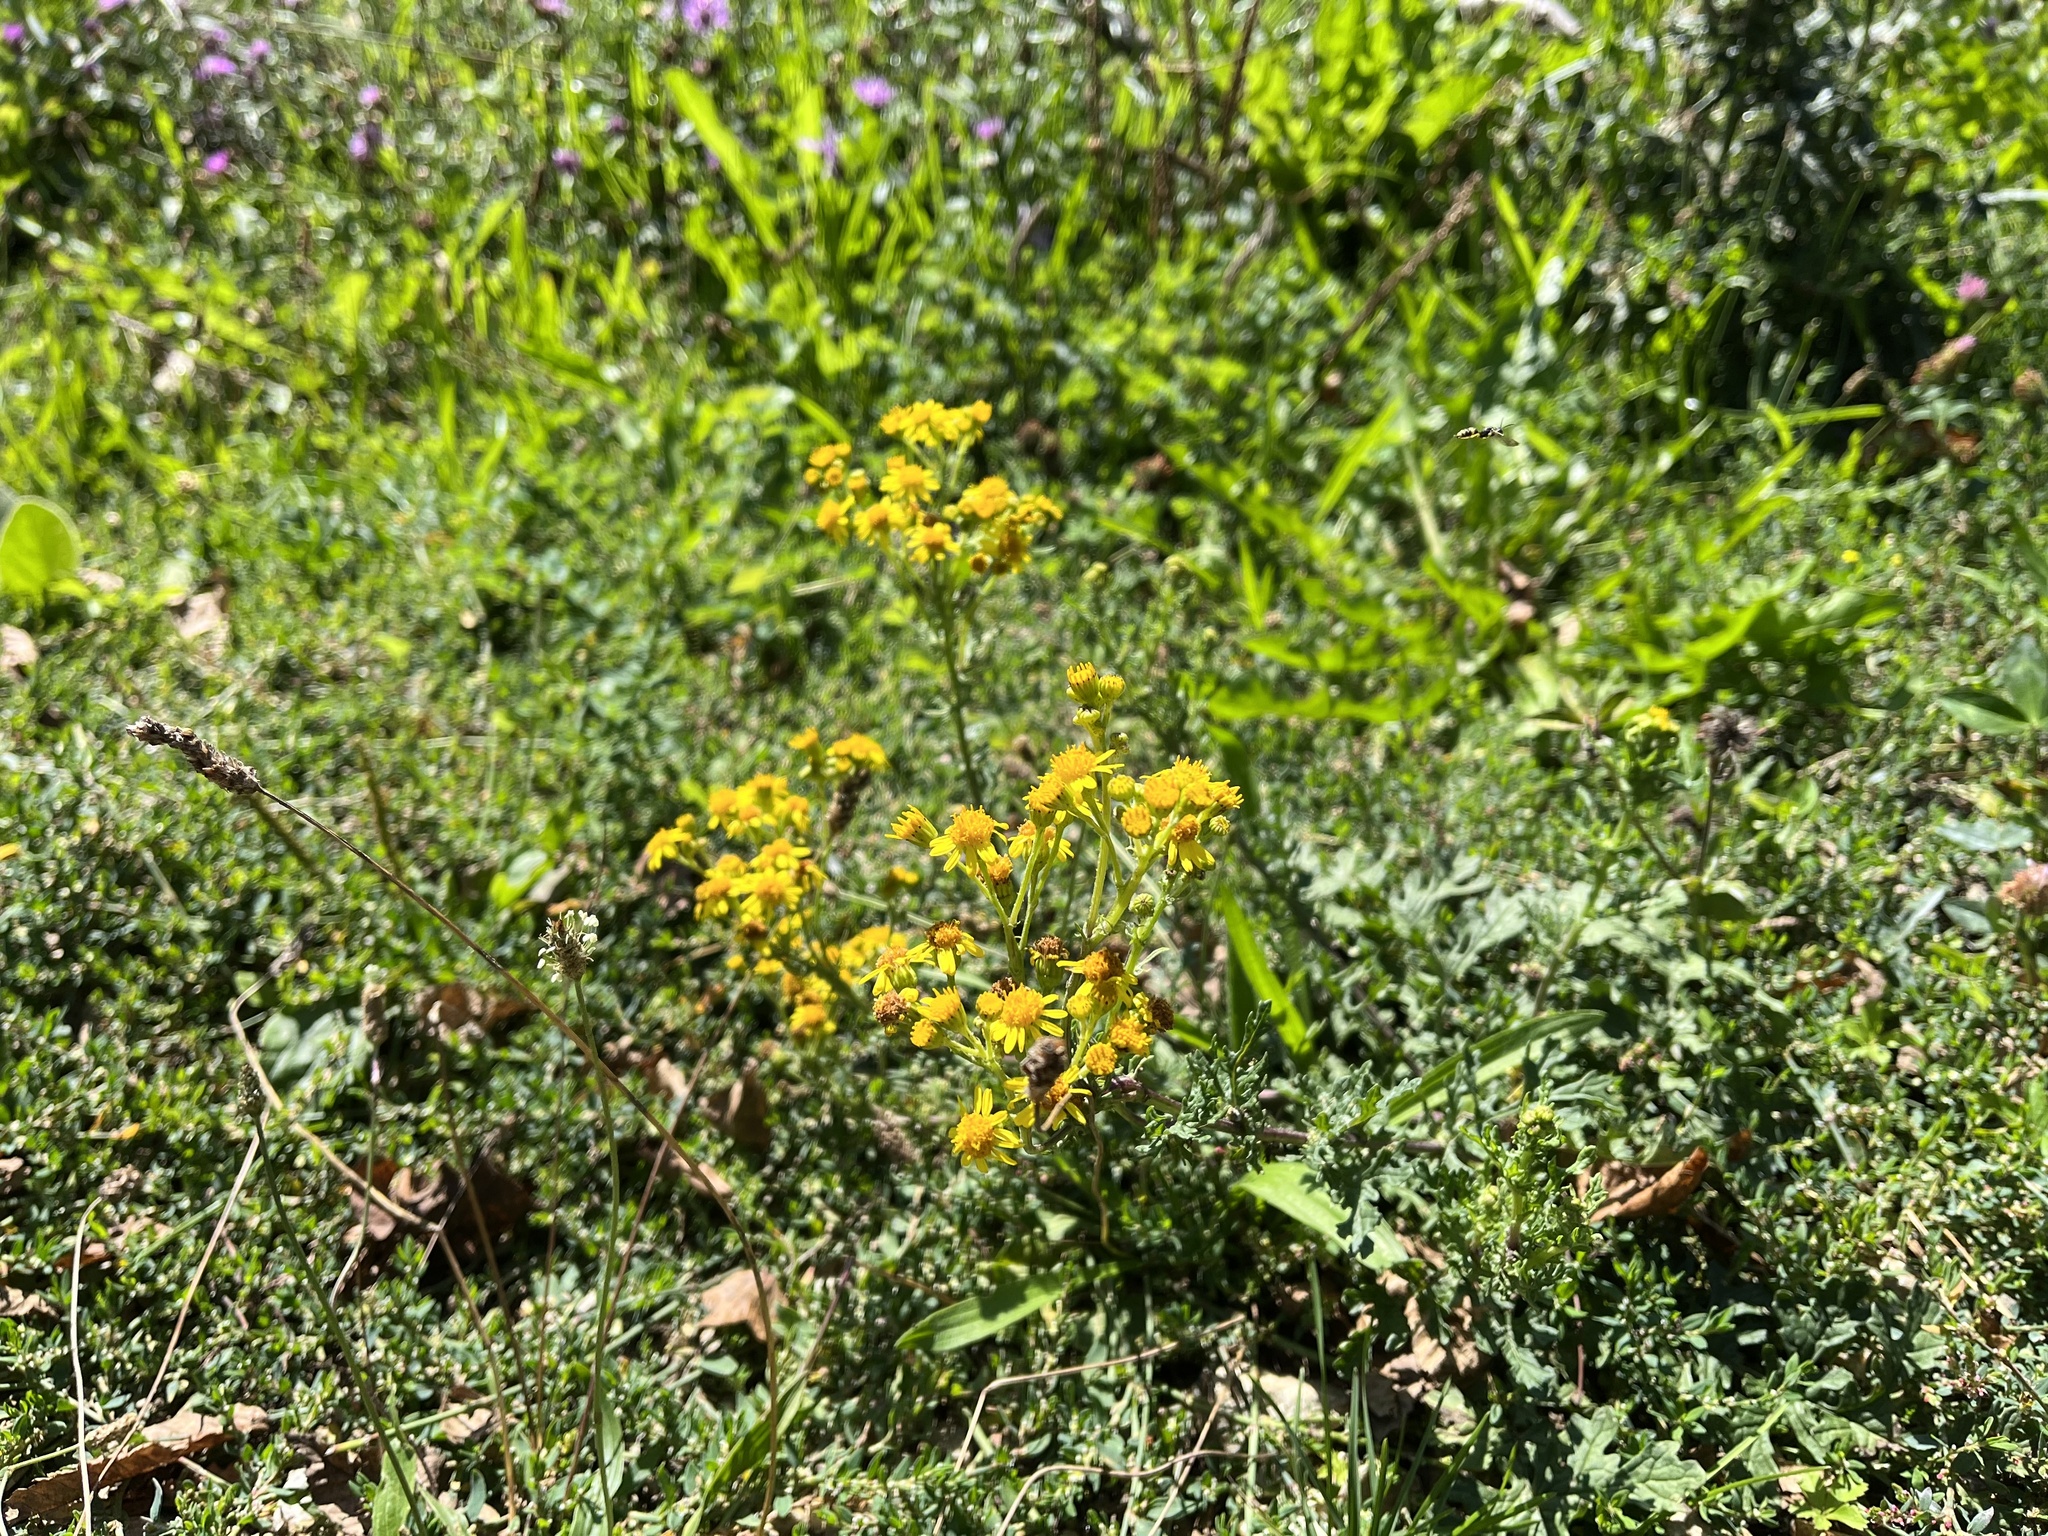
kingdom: Plantae
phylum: Tracheophyta
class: Magnoliopsida
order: Asterales
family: Asteraceae
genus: Jacobaea
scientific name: Jacobaea vulgaris
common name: Stinking willie
